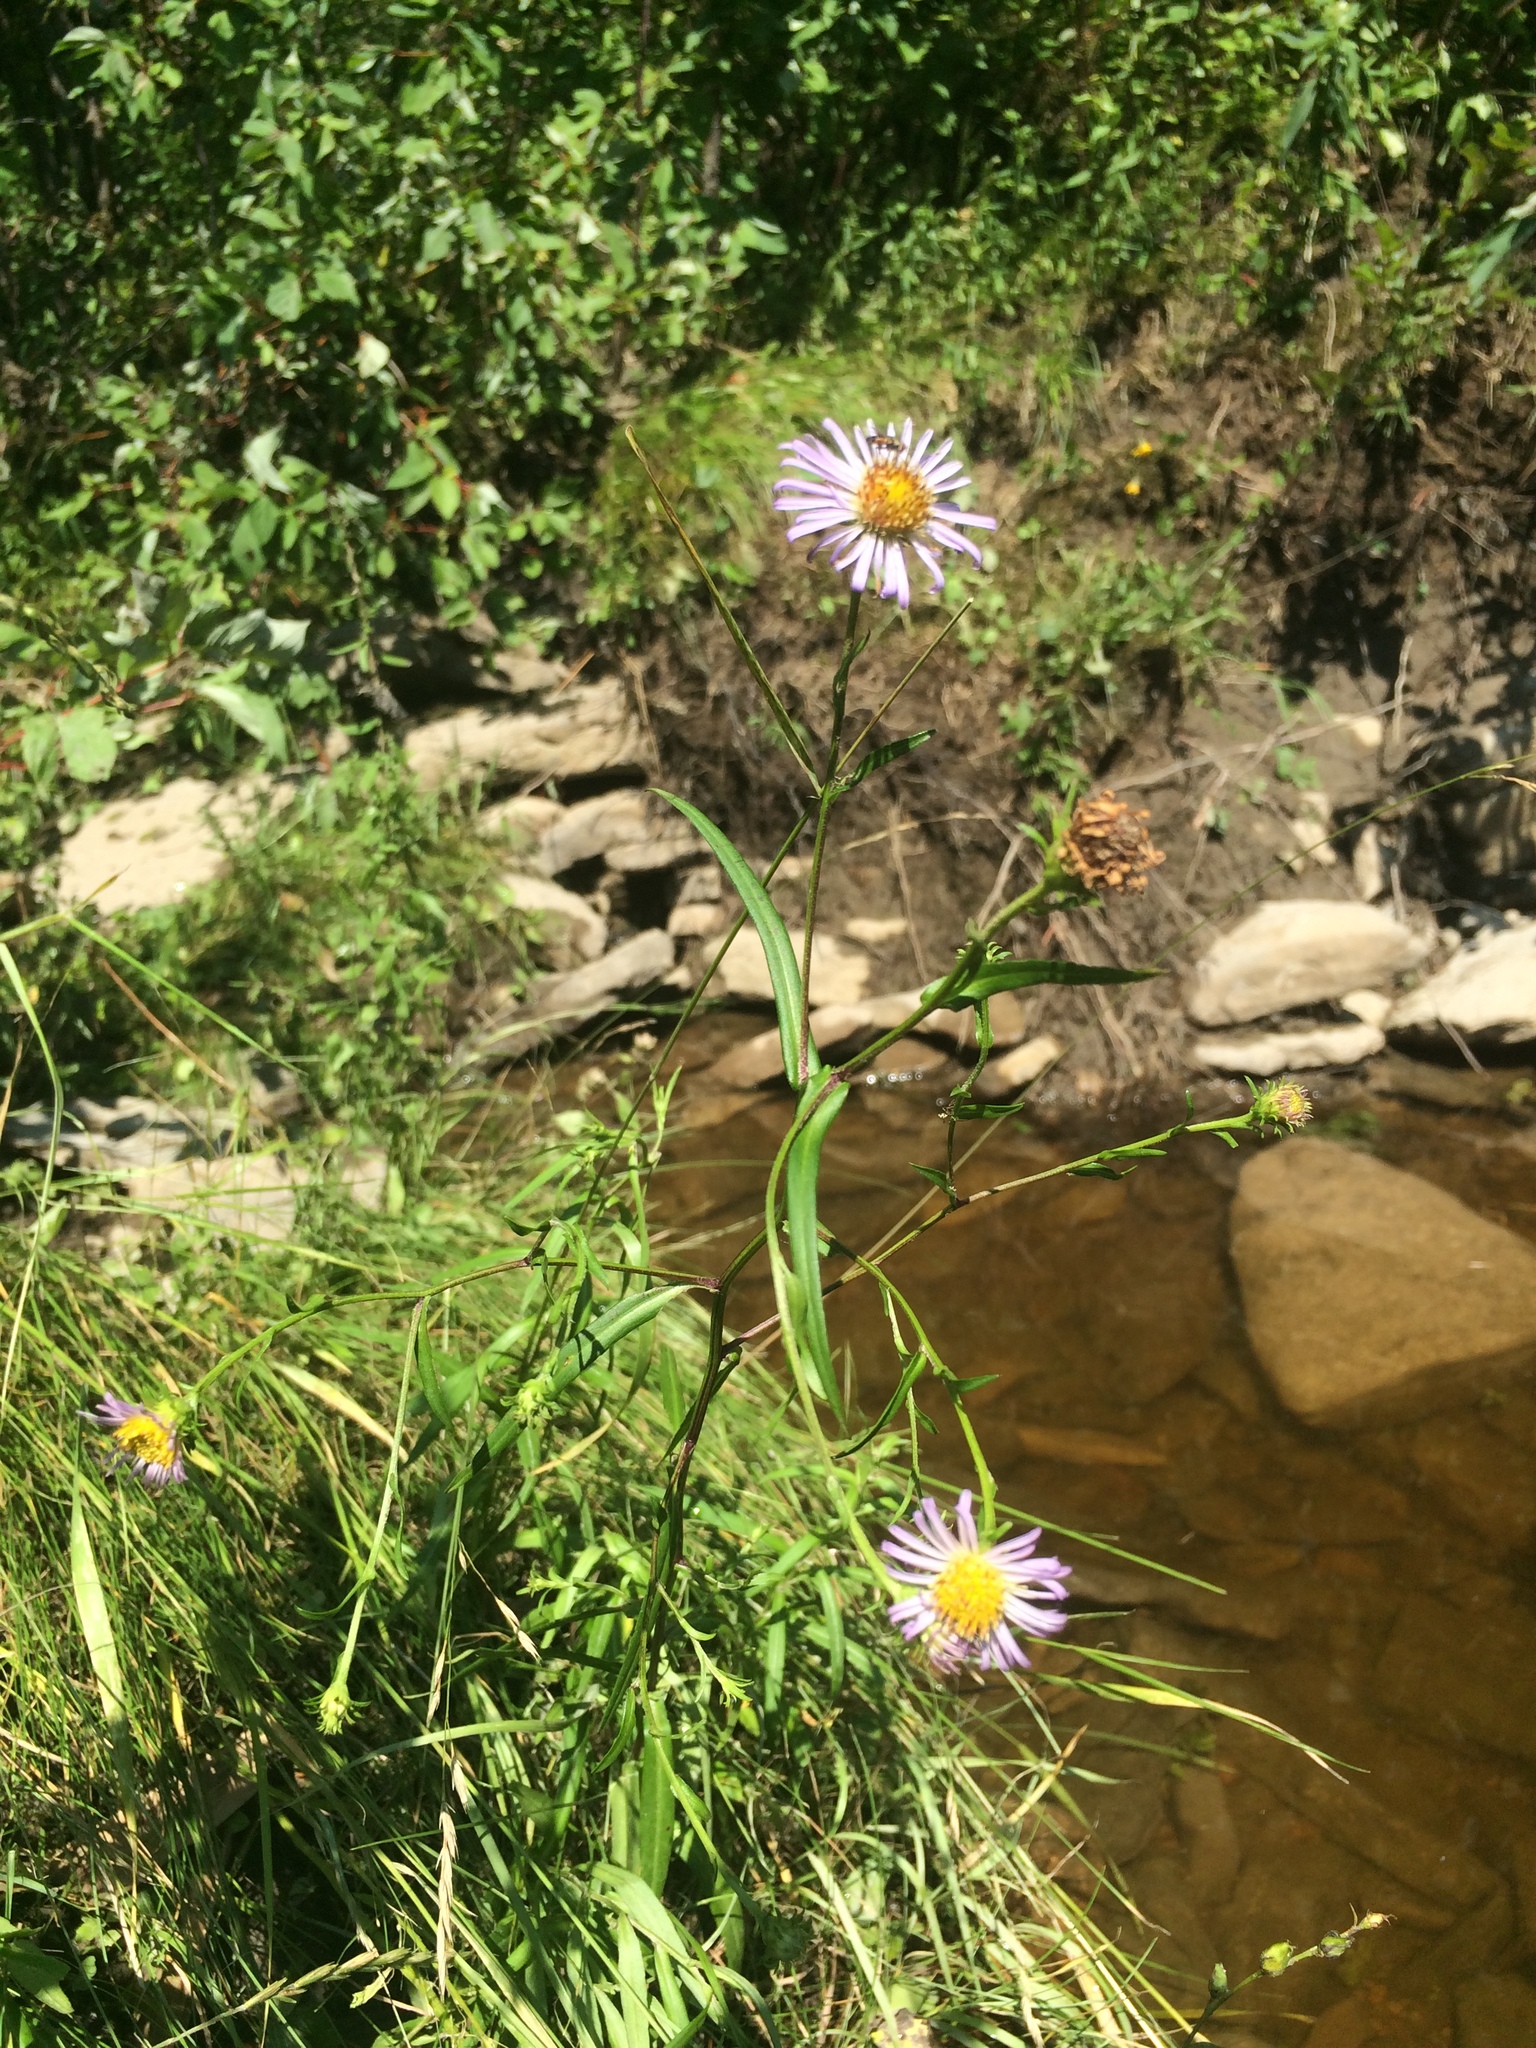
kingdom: Plantae
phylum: Tracheophyta
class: Magnoliopsida
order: Asterales
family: Asteraceae
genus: Symphyotrichum
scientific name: Symphyotrichum novi-belgii
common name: Michaelmas daisy
